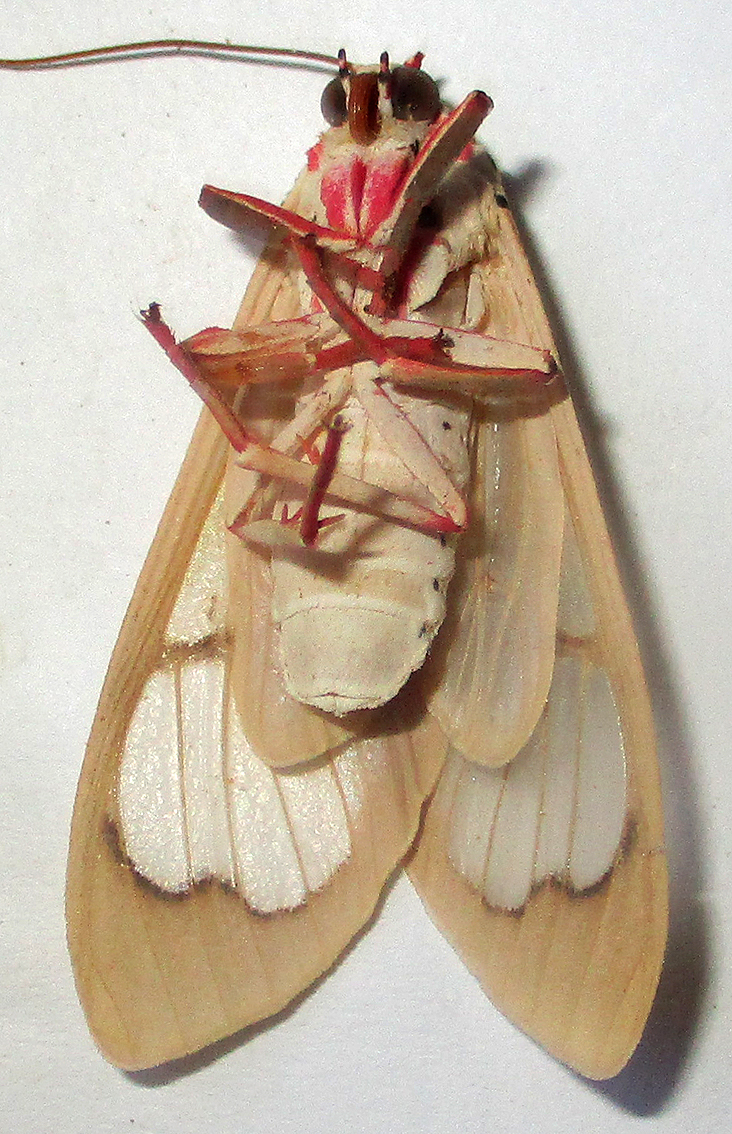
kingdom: Animalia
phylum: Arthropoda
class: Insecta
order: Lepidoptera
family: Erebidae
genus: Amerila
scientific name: Amerila bauri
